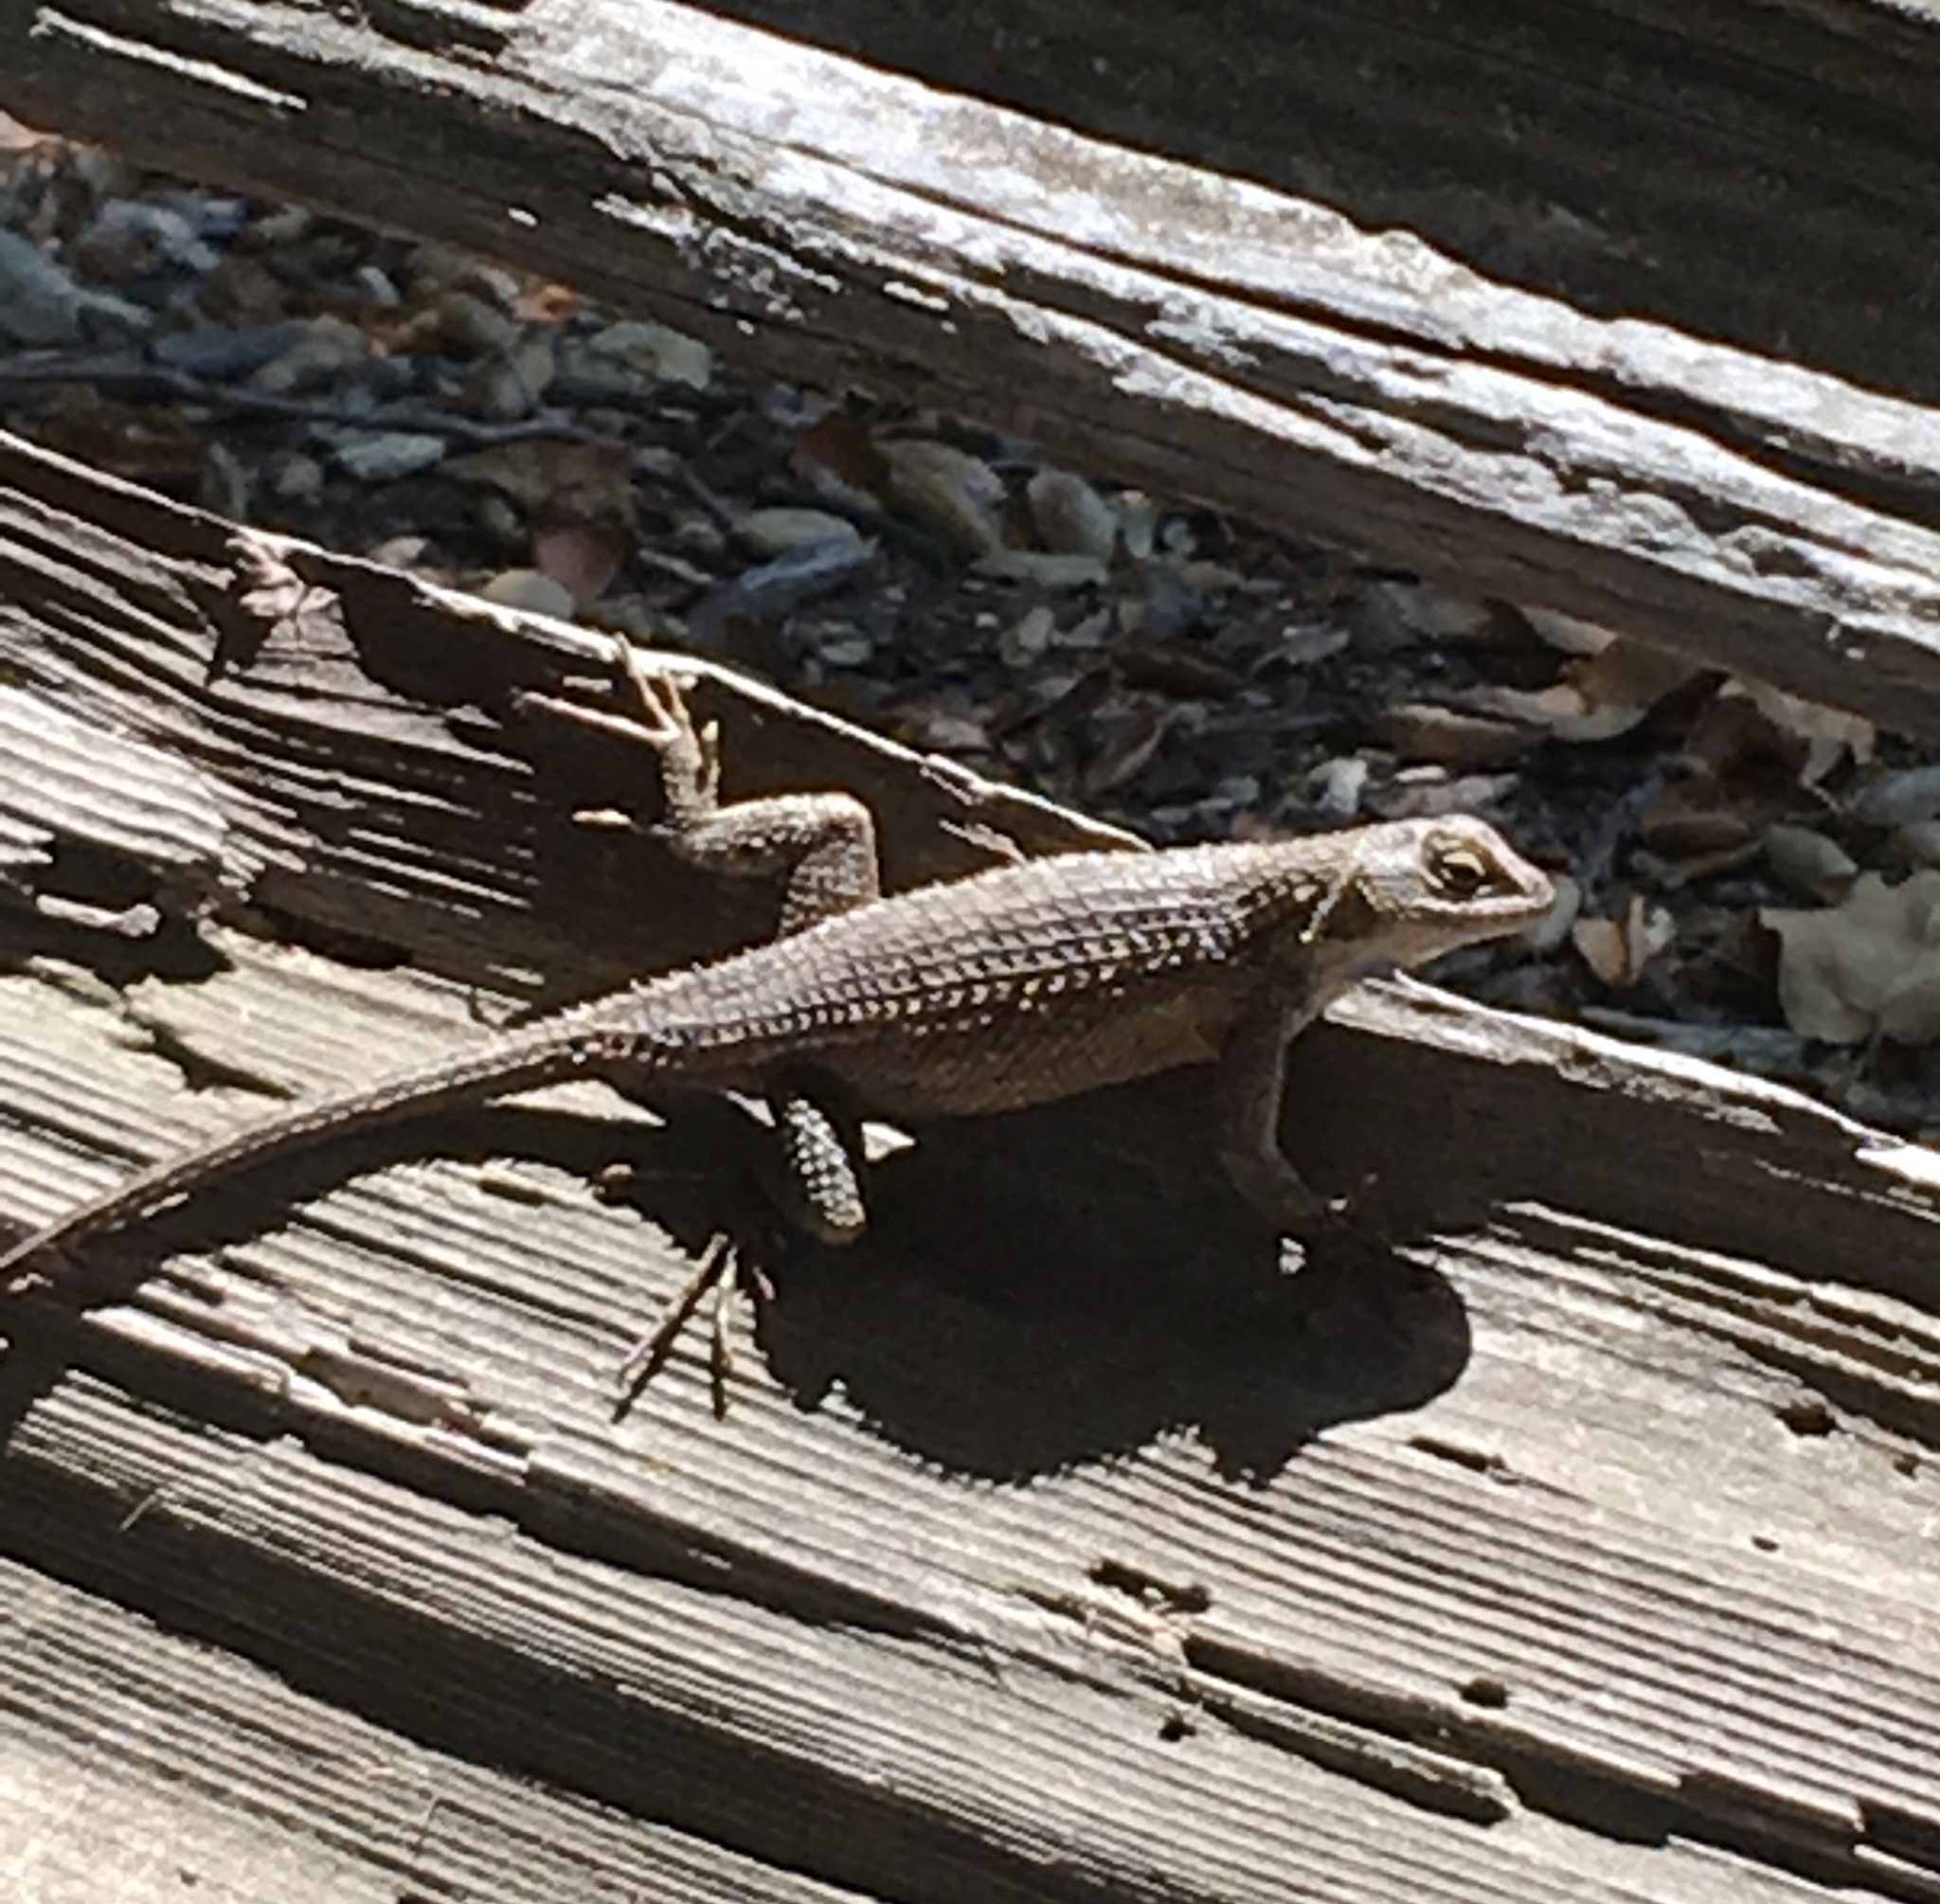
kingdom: Animalia
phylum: Chordata
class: Squamata
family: Phrynosomatidae
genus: Sceloporus
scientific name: Sceloporus occidentalis
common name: Western fence lizard
